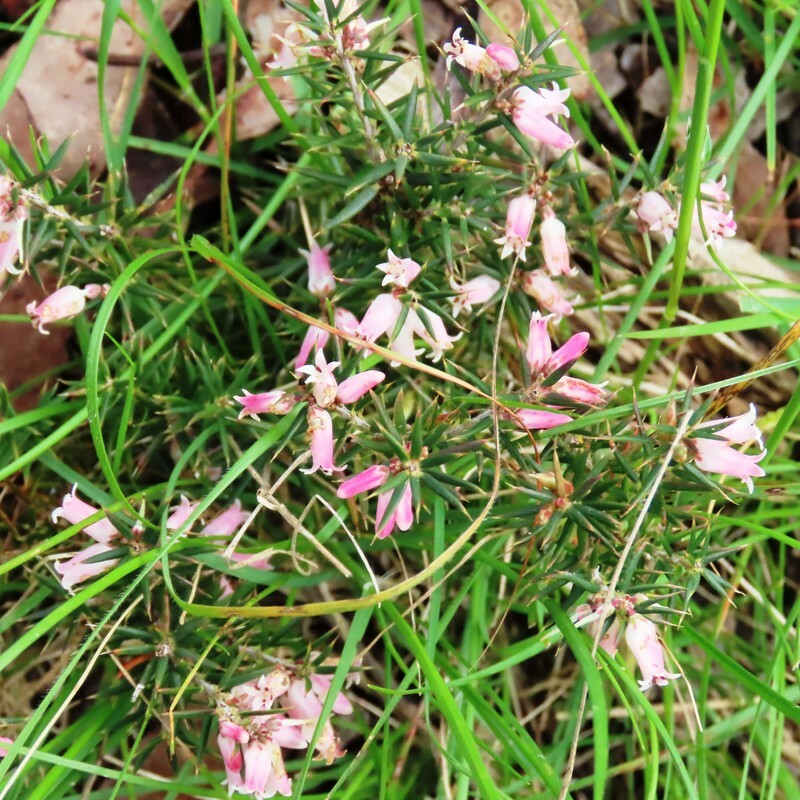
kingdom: Plantae
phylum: Tracheophyta
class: Magnoliopsida
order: Ericales
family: Ericaceae
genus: Lissanthe
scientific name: Lissanthe strigosa
